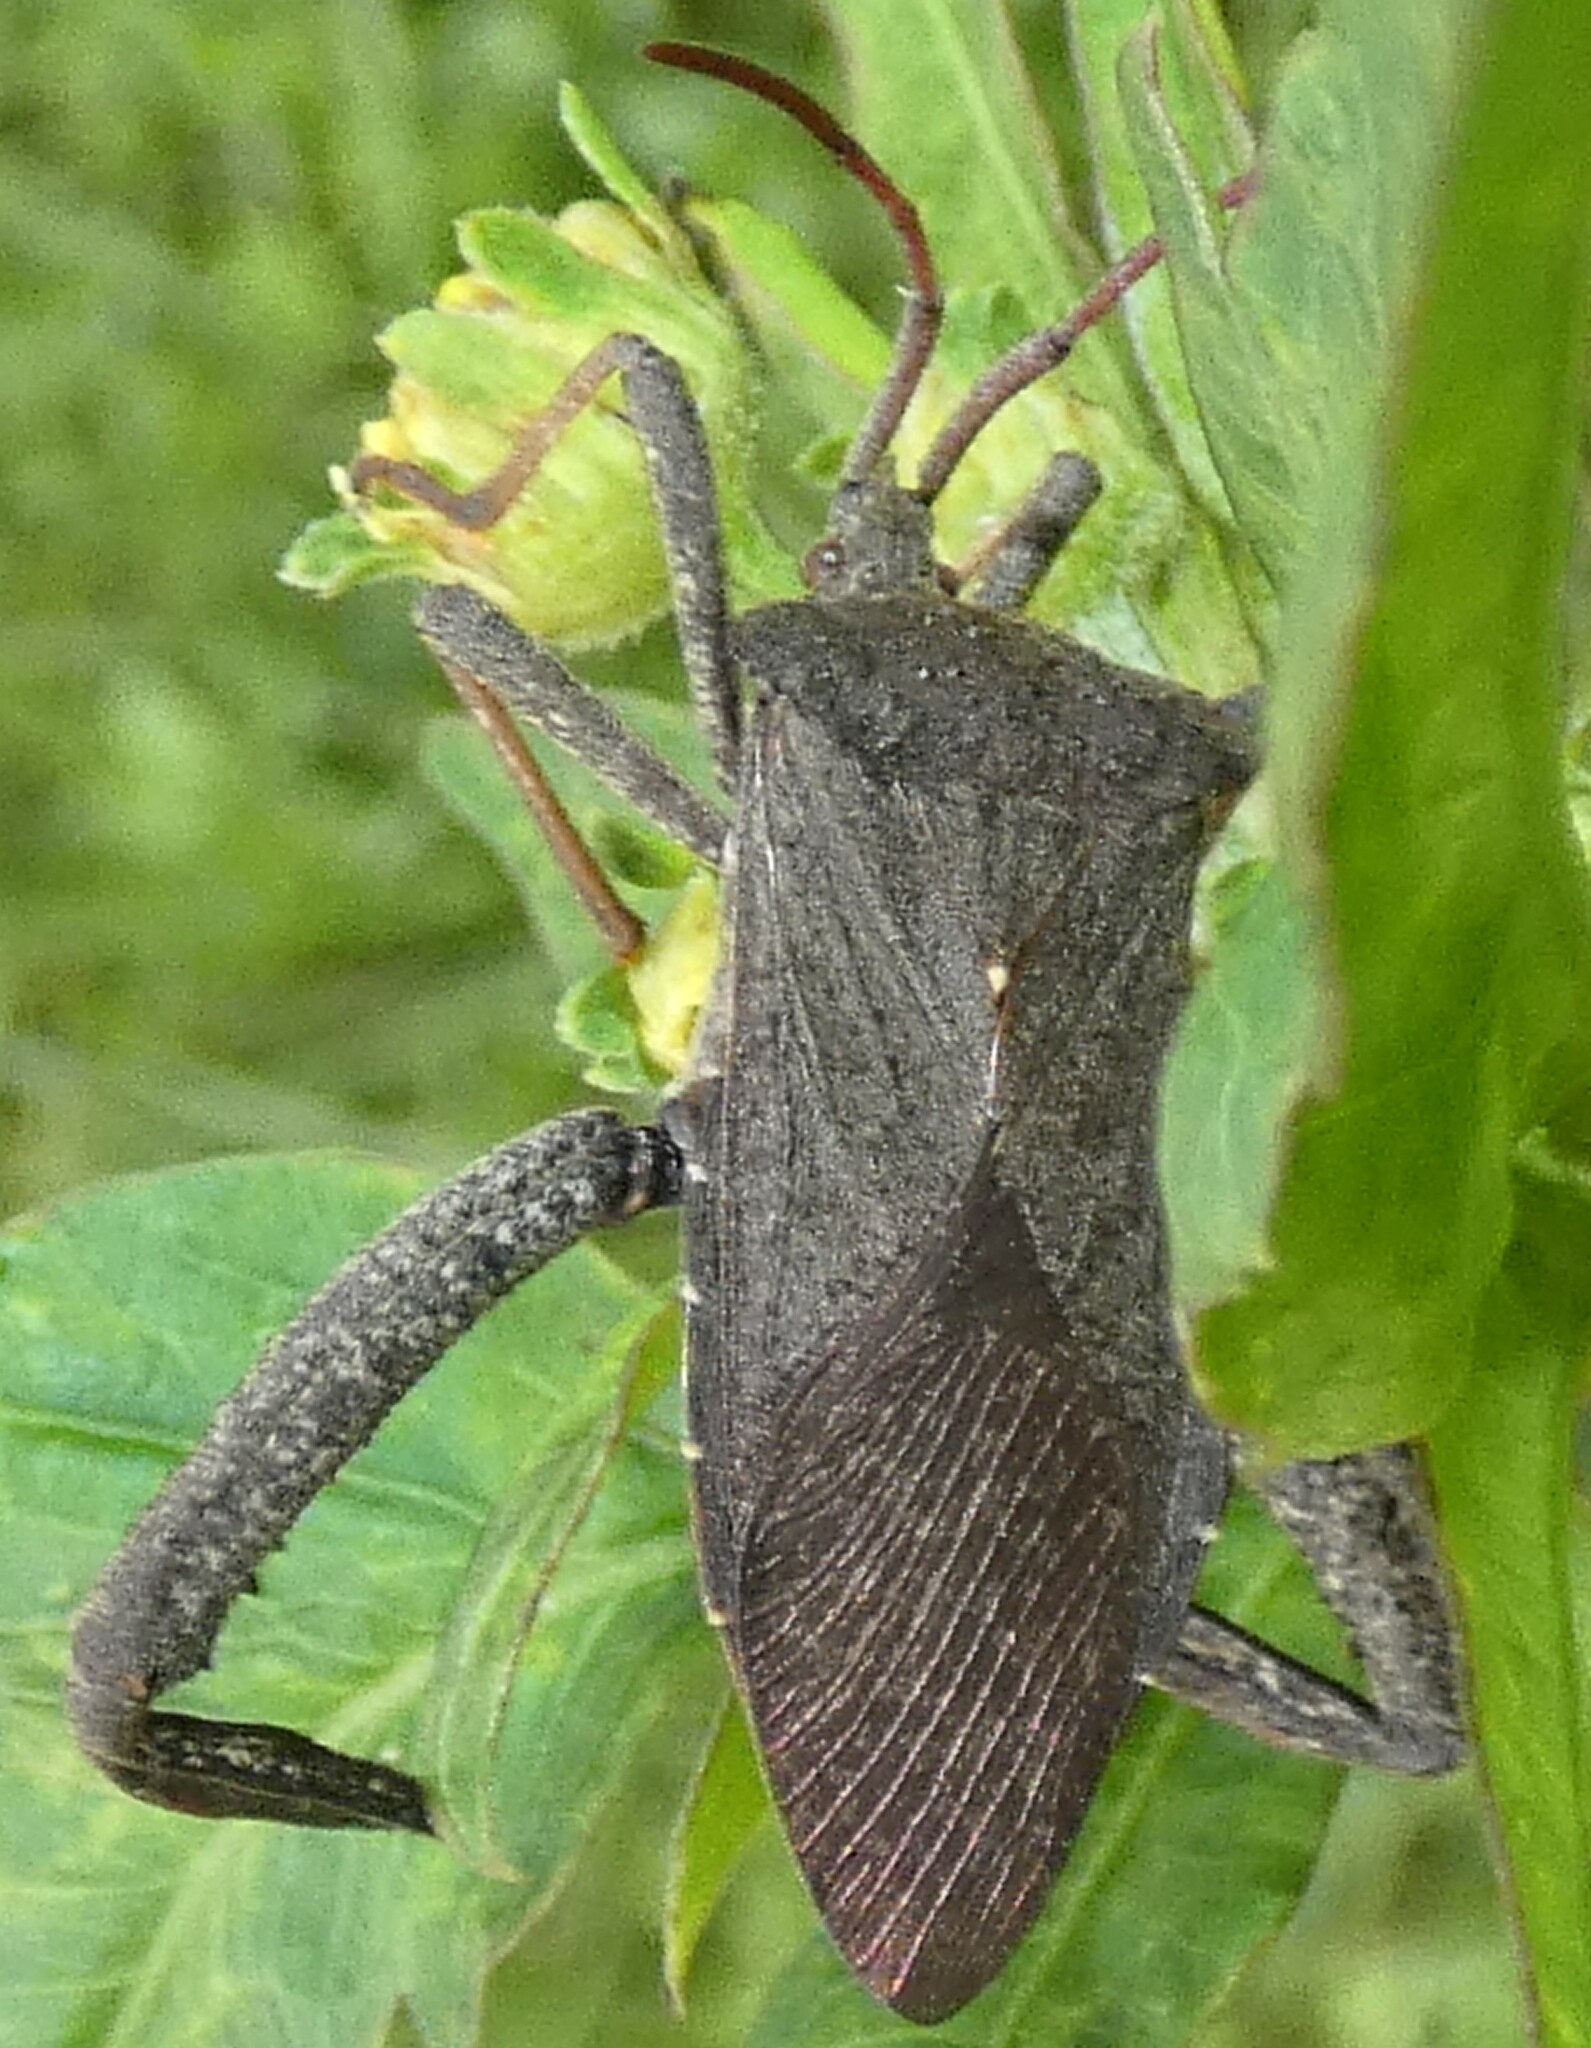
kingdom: Animalia
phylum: Arthropoda
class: Insecta
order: Hemiptera
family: Coreidae
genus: Acanthocephala
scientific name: Acanthocephala femorata
